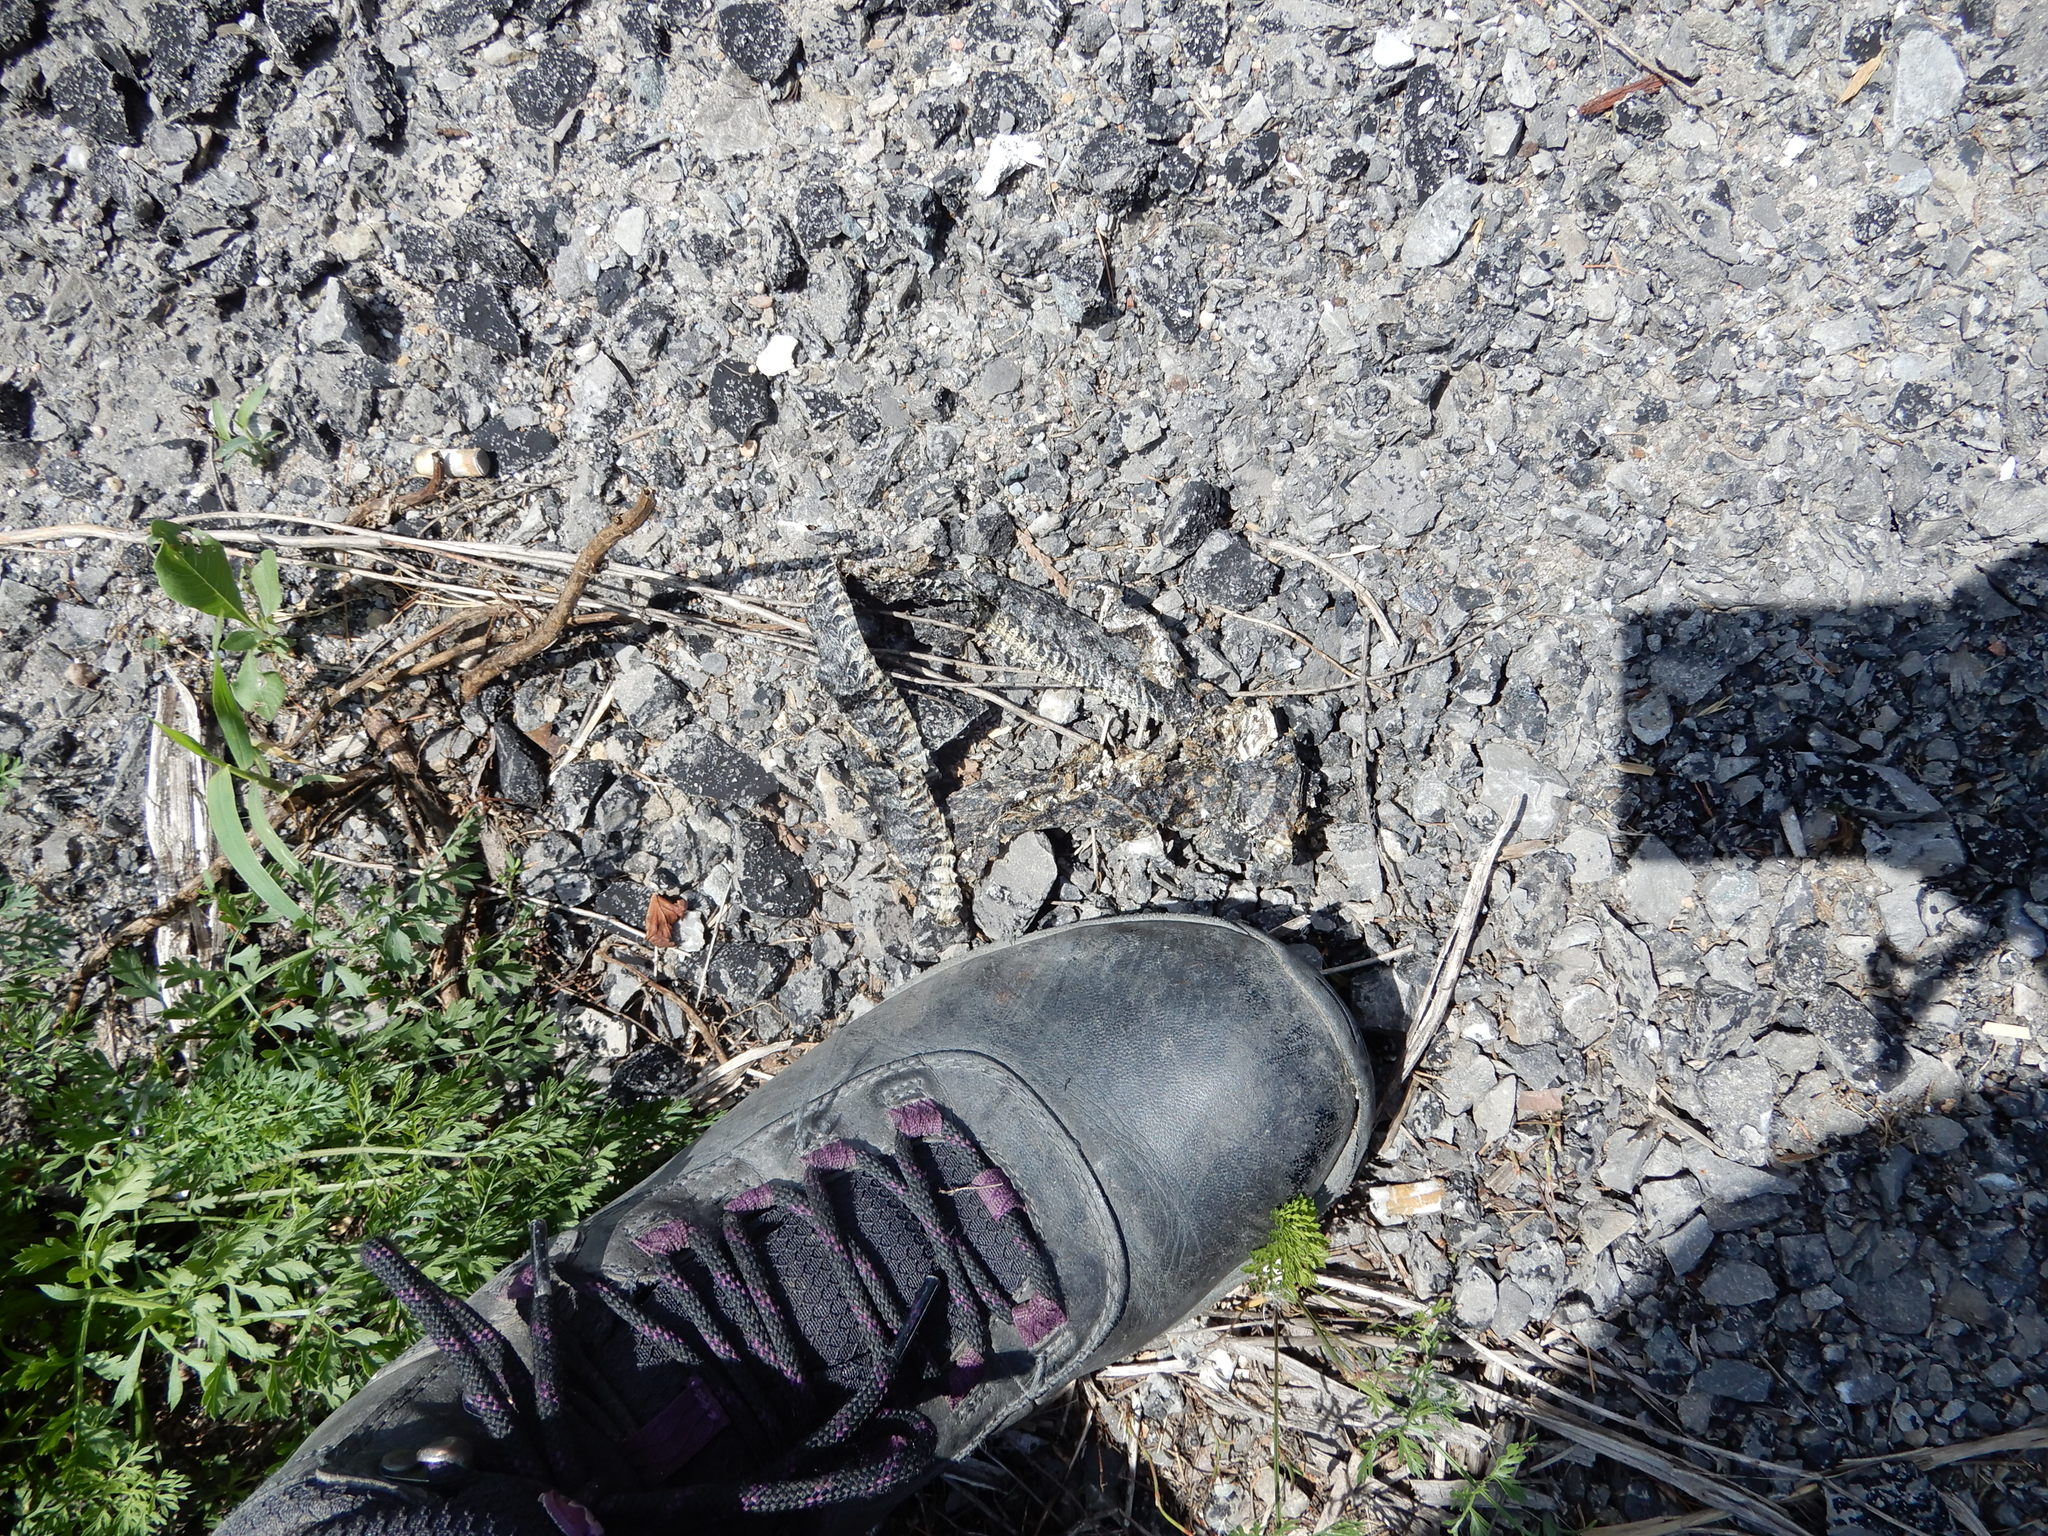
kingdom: Animalia
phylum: Chordata
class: Squamata
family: Colubridae
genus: Nerodia
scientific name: Nerodia sipedon
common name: Northern water snake
